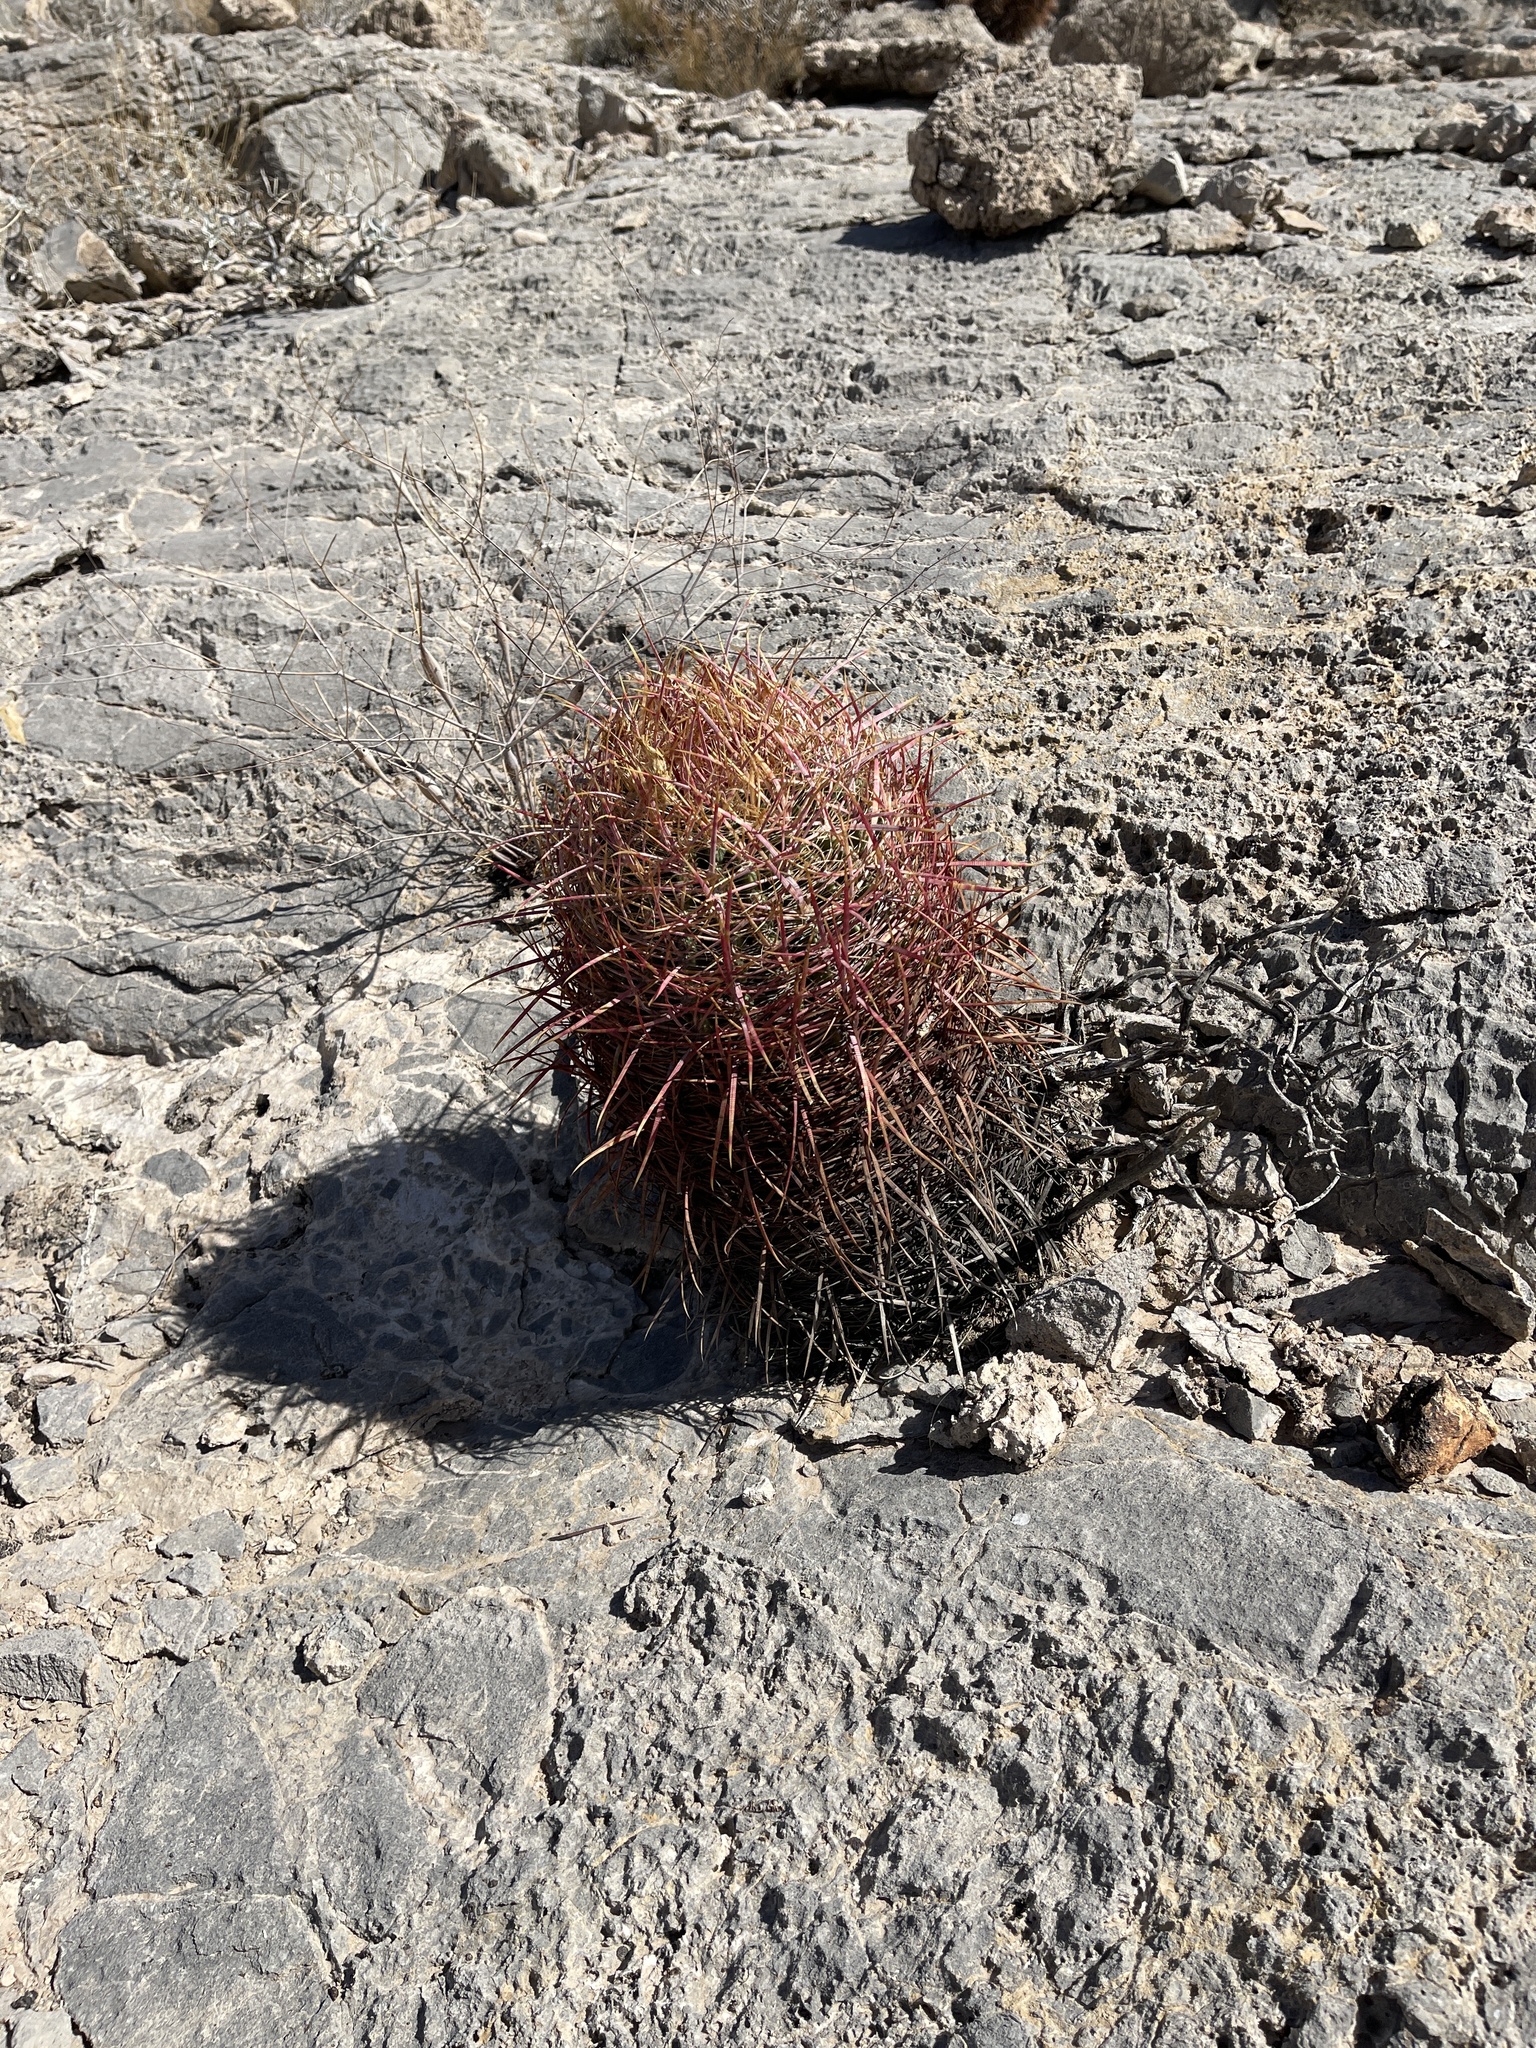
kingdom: Plantae
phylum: Tracheophyta
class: Magnoliopsida
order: Caryophyllales
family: Cactaceae
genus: Ferocactus
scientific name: Ferocactus cylindraceus
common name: California barrel cactus
